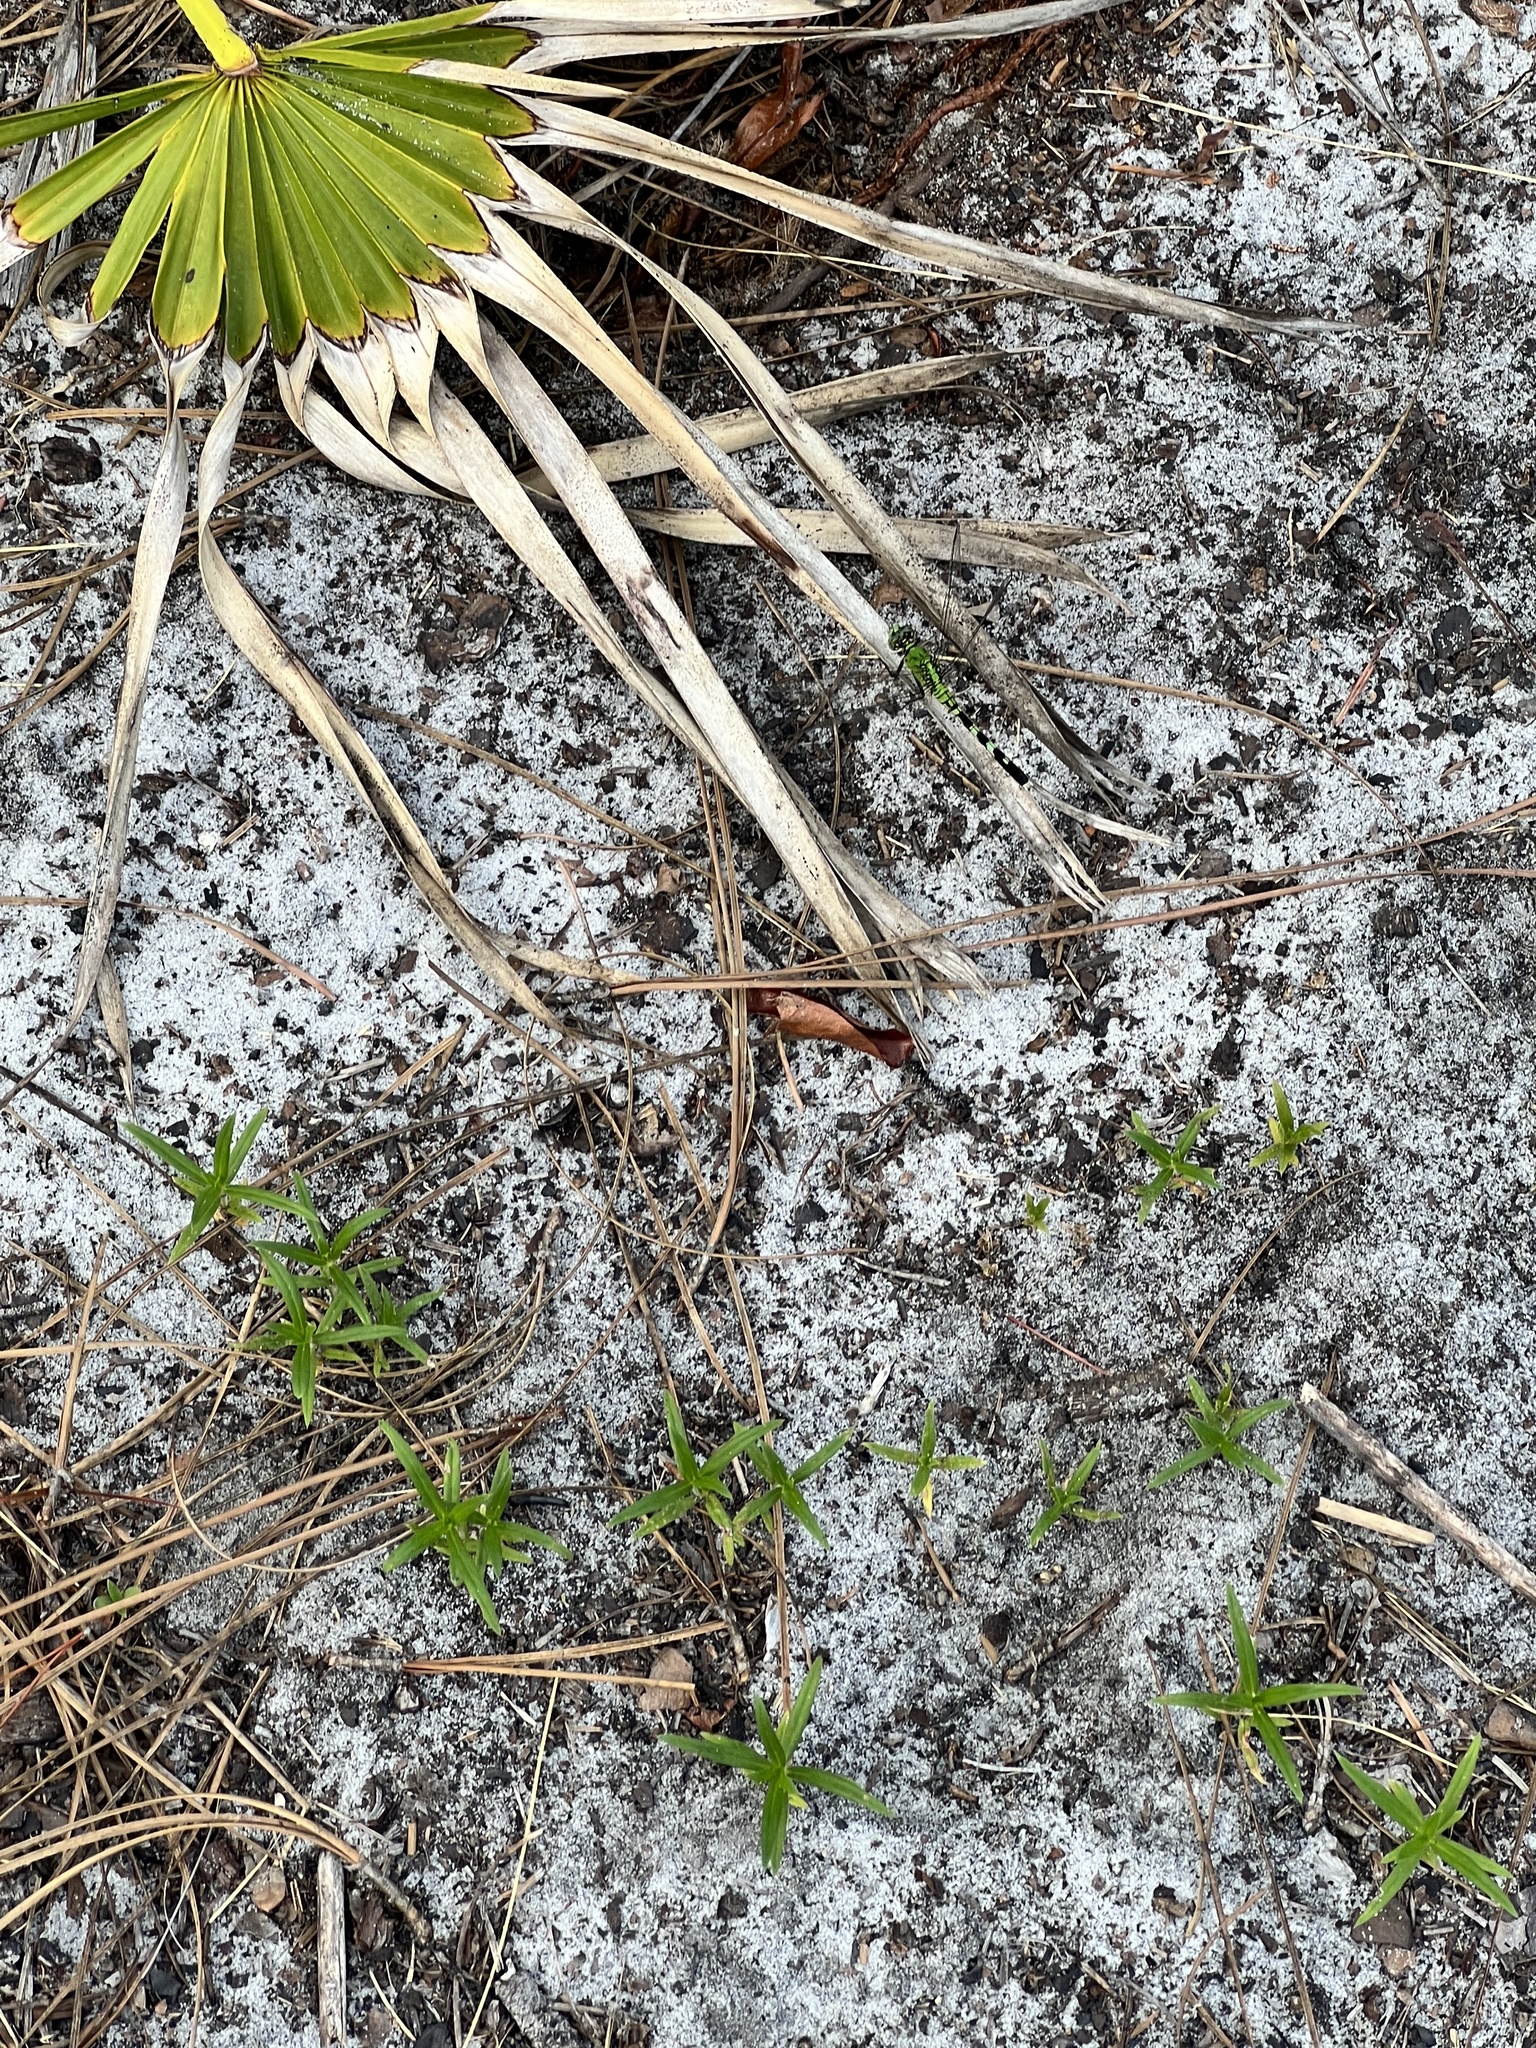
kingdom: Animalia
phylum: Arthropoda
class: Insecta
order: Odonata
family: Libellulidae
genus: Erythemis
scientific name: Erythemis simplicicollis
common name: Eastern pondhawk
